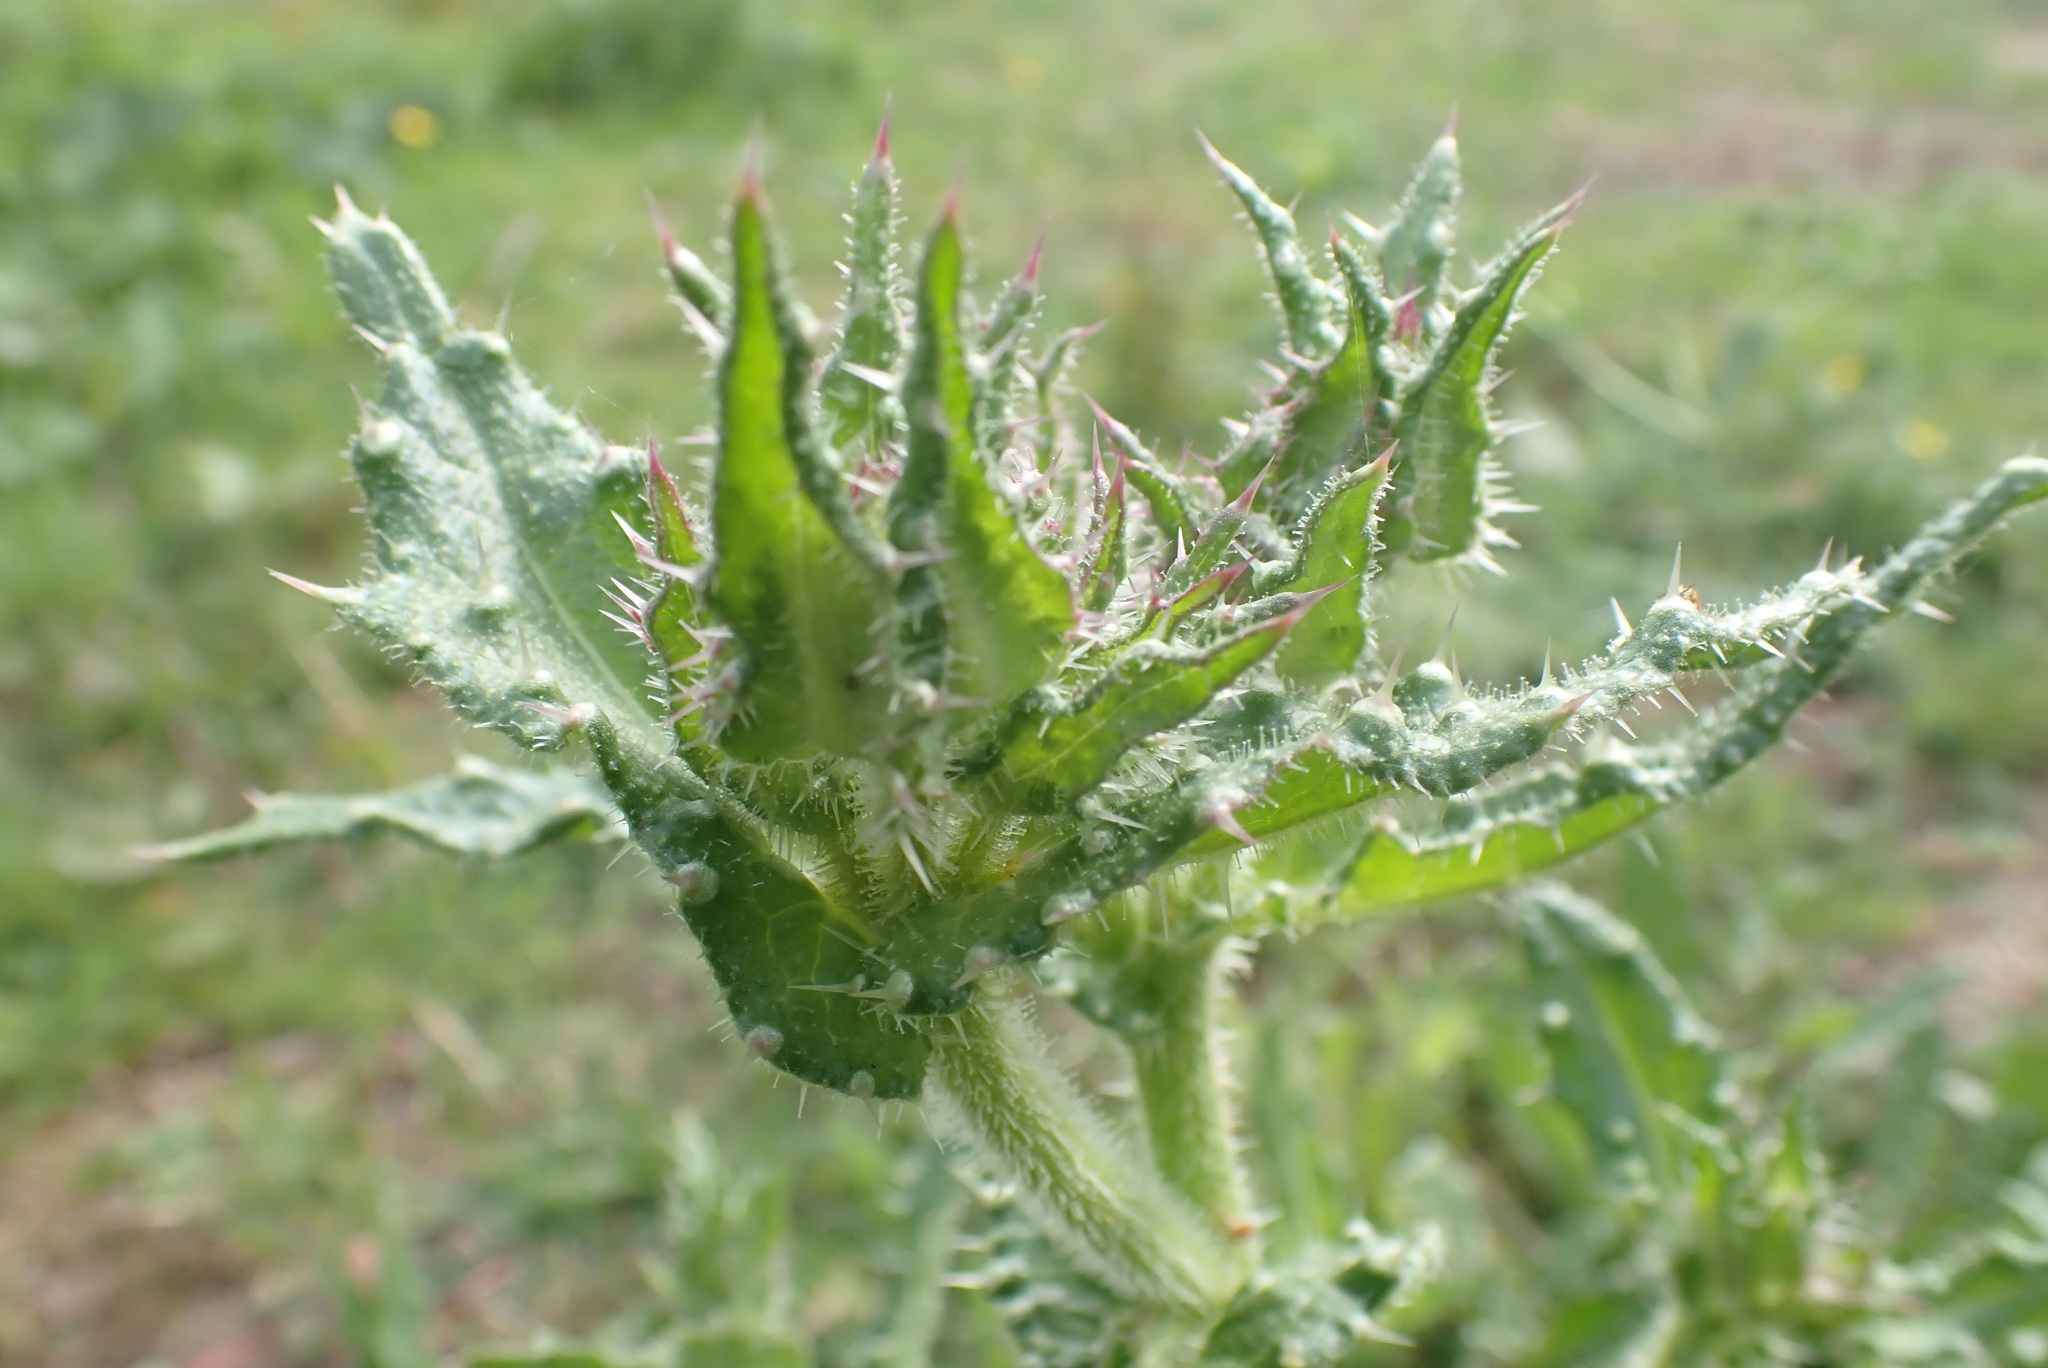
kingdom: Plantae
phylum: Tracheophyta
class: Magnoliopsida
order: Asterales
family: Asteraceae
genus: Helminthotheca
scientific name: Helminthotheca echioides
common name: Ox-tongue
